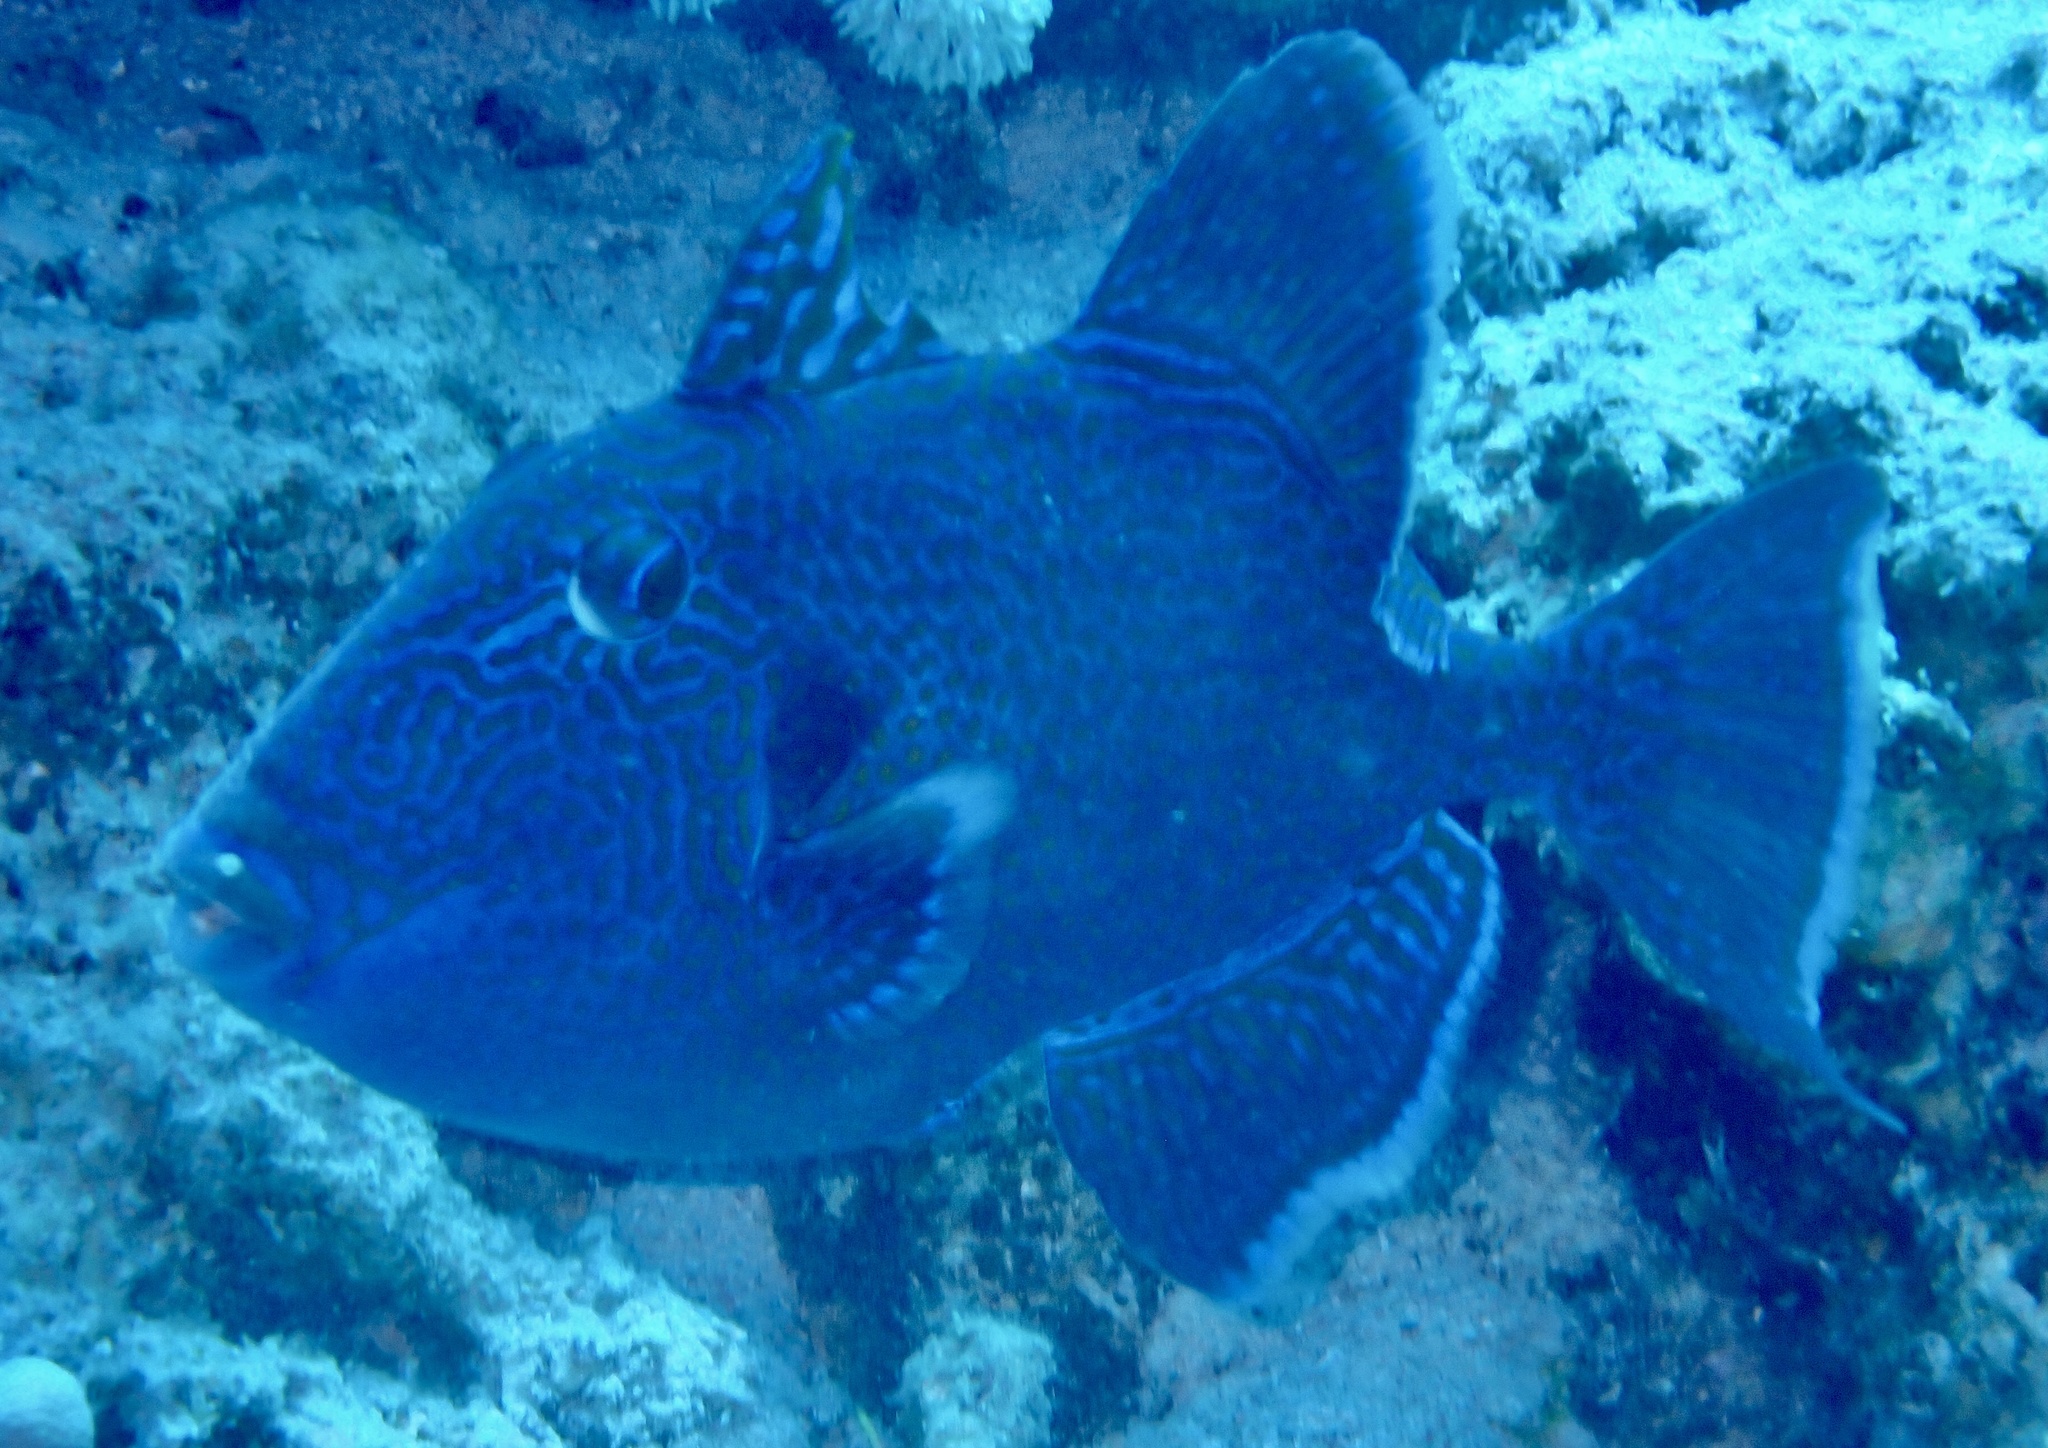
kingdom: Animalia
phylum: Chordata
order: Tetraodontiformes
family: Balistidae
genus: Pseudobalistes
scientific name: Pseudobalistes fuscus
